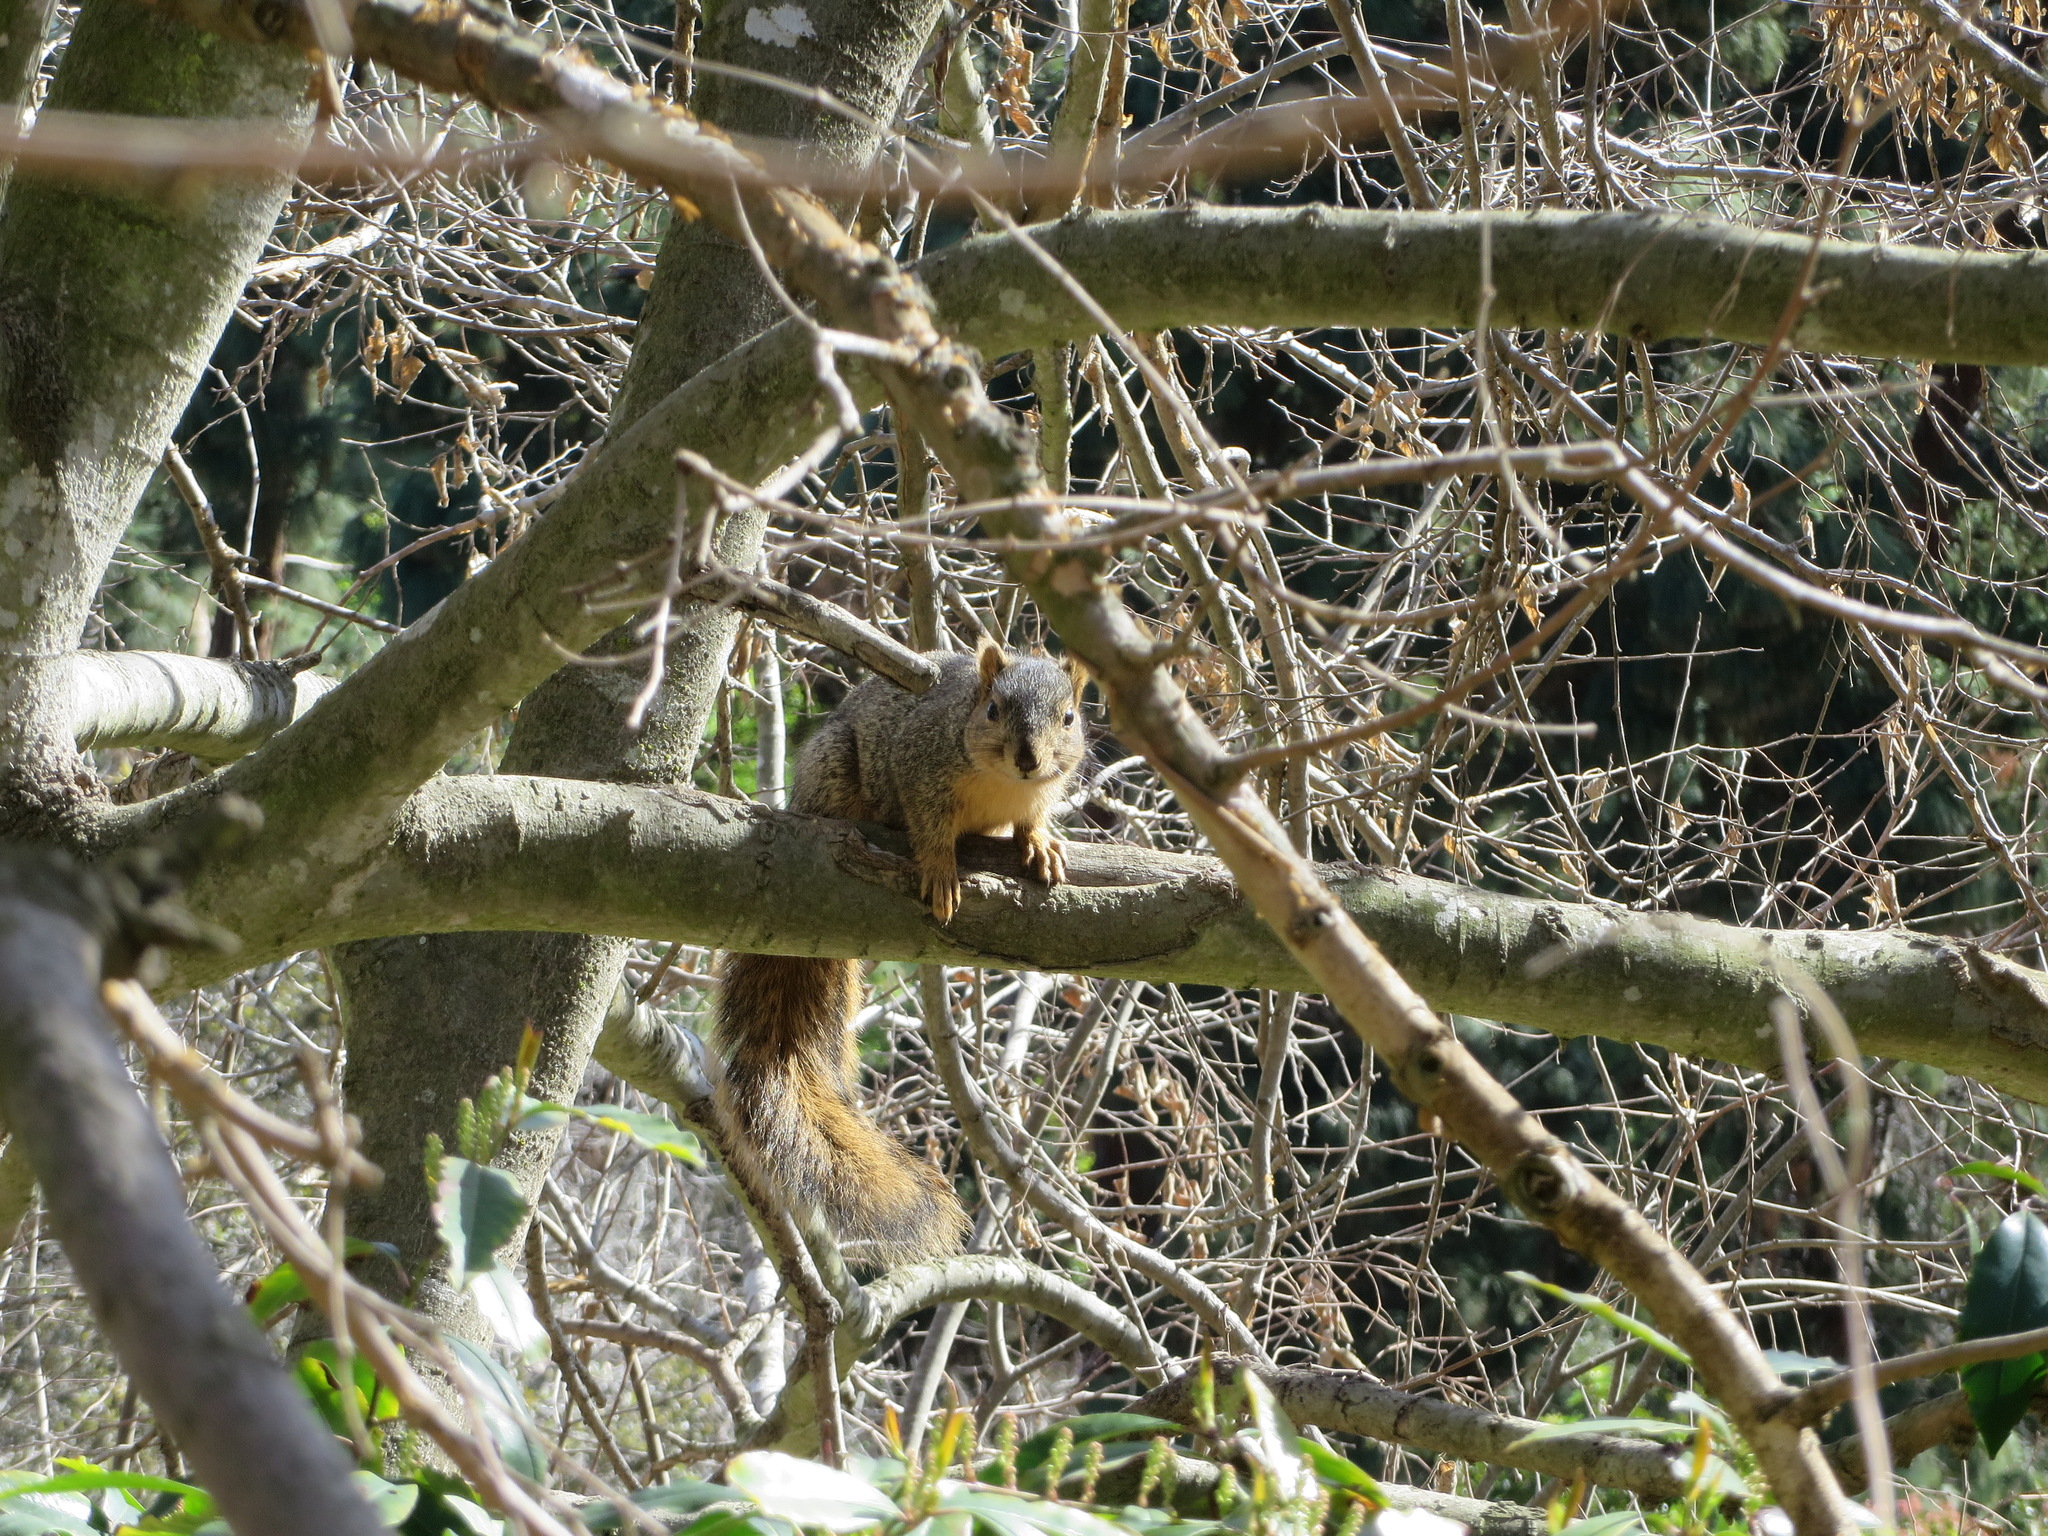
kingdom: Animalia
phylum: Chordata
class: Mammalia
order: Rodentia
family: Sciuridae
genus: Sciurus
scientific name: Sciurus niger
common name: Fox squirrel
